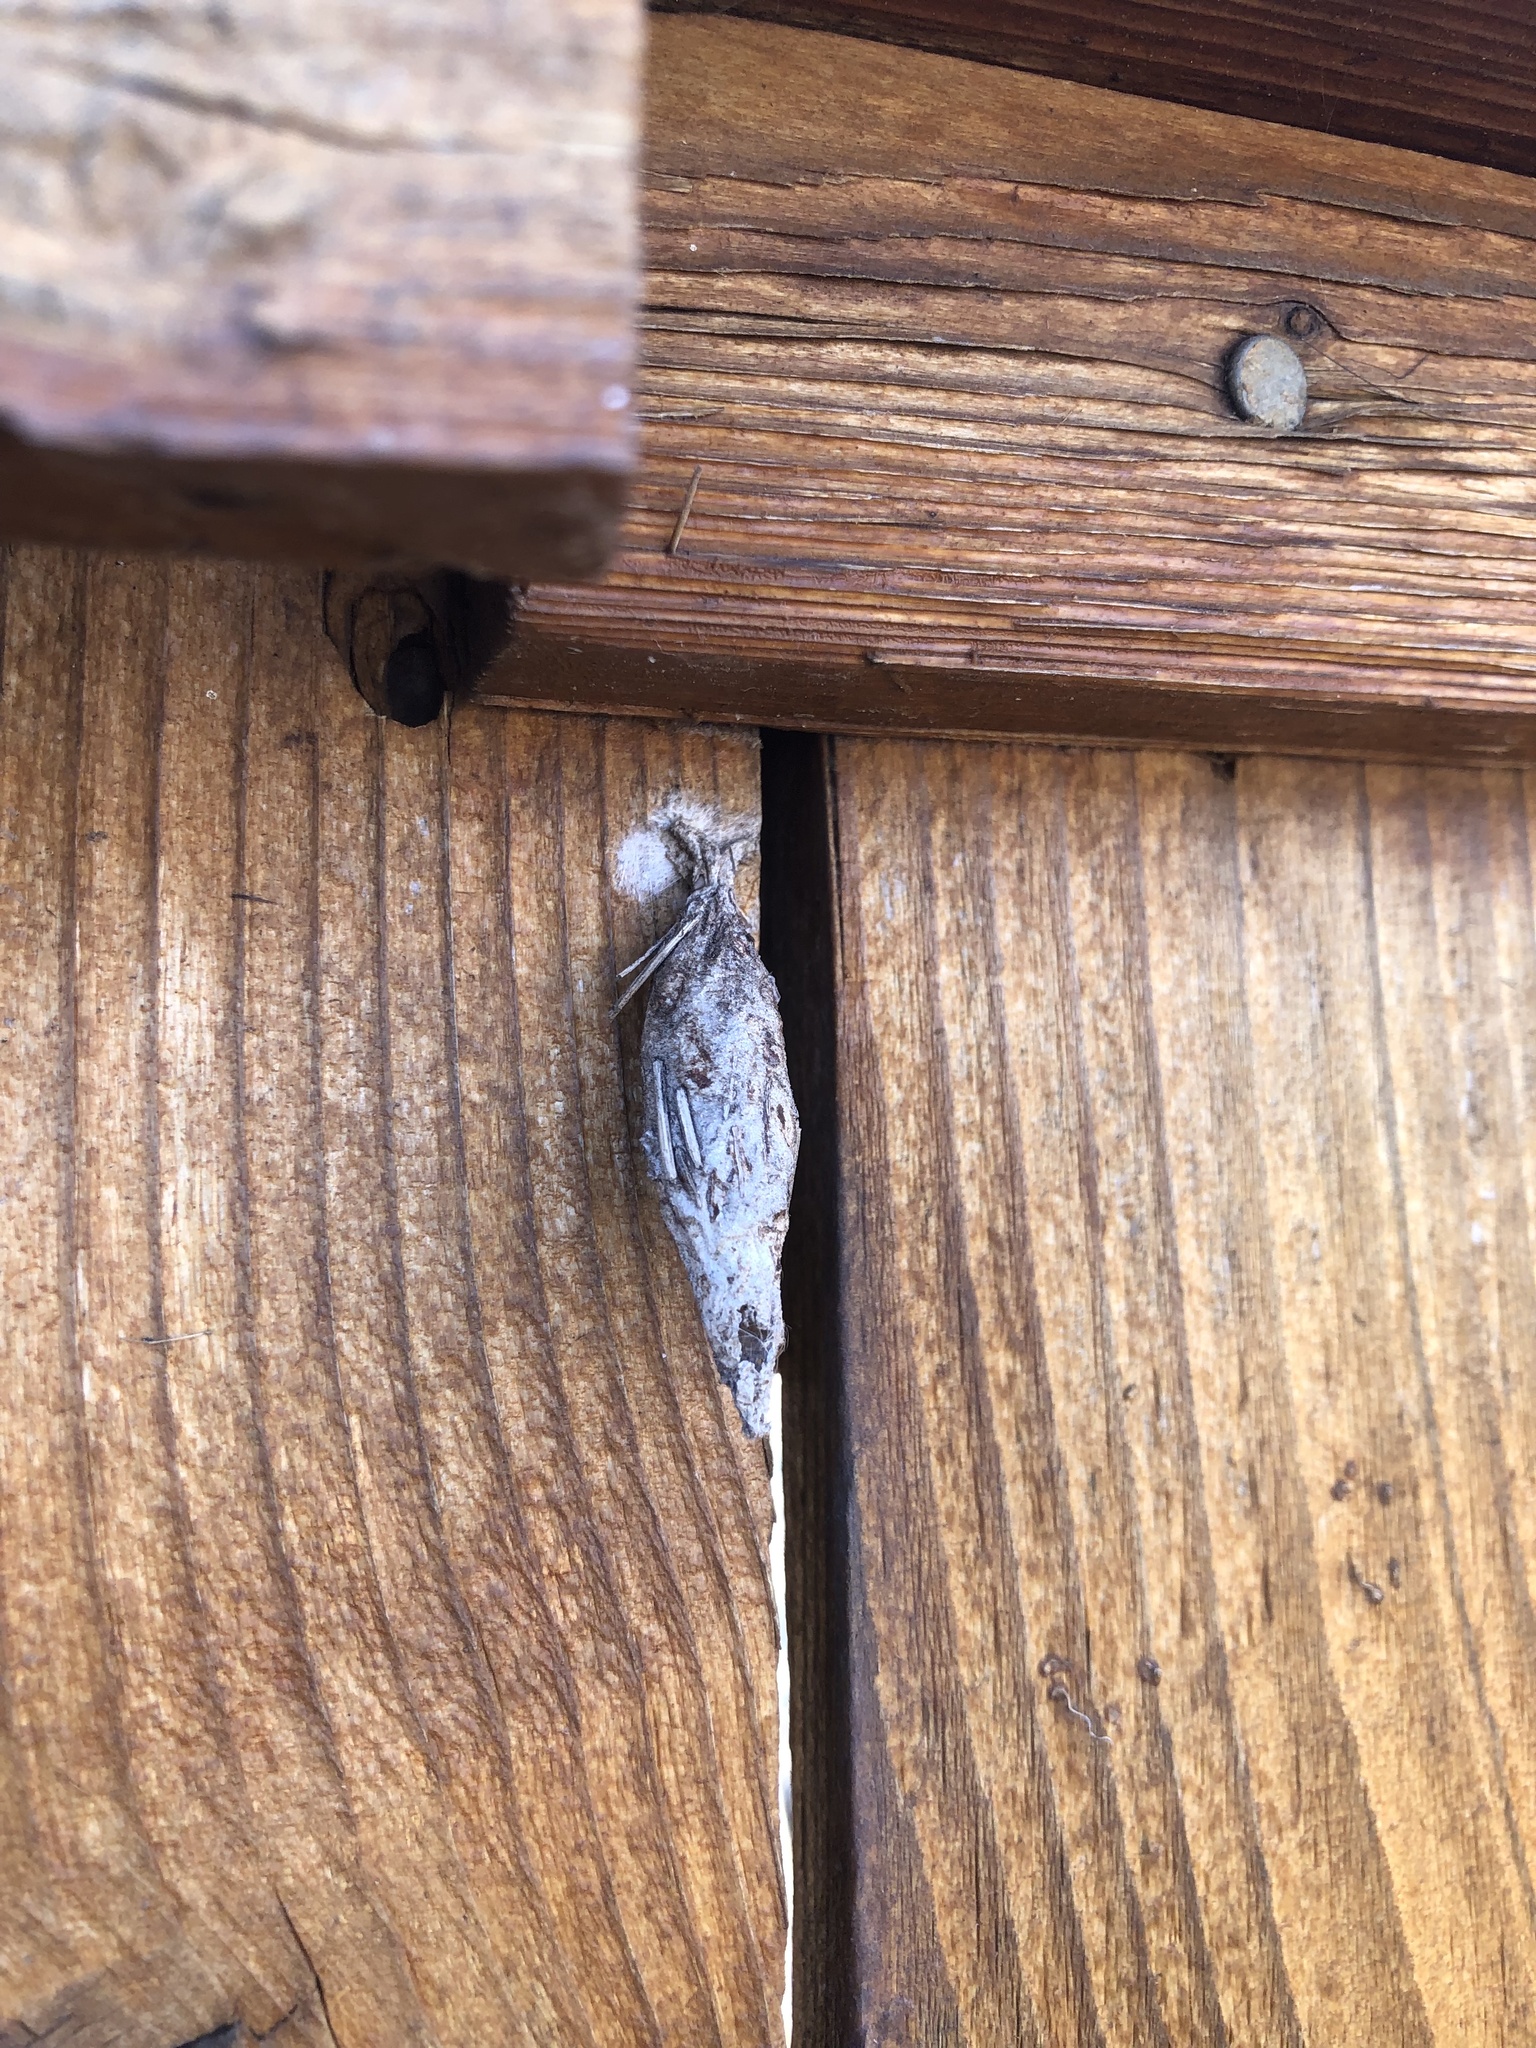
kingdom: Animalia
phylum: Arthropoda
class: Insecta
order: Lepidoptera
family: Psychidae
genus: Thyridopteryx
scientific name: Thyridopteryx ephemeraeformis
